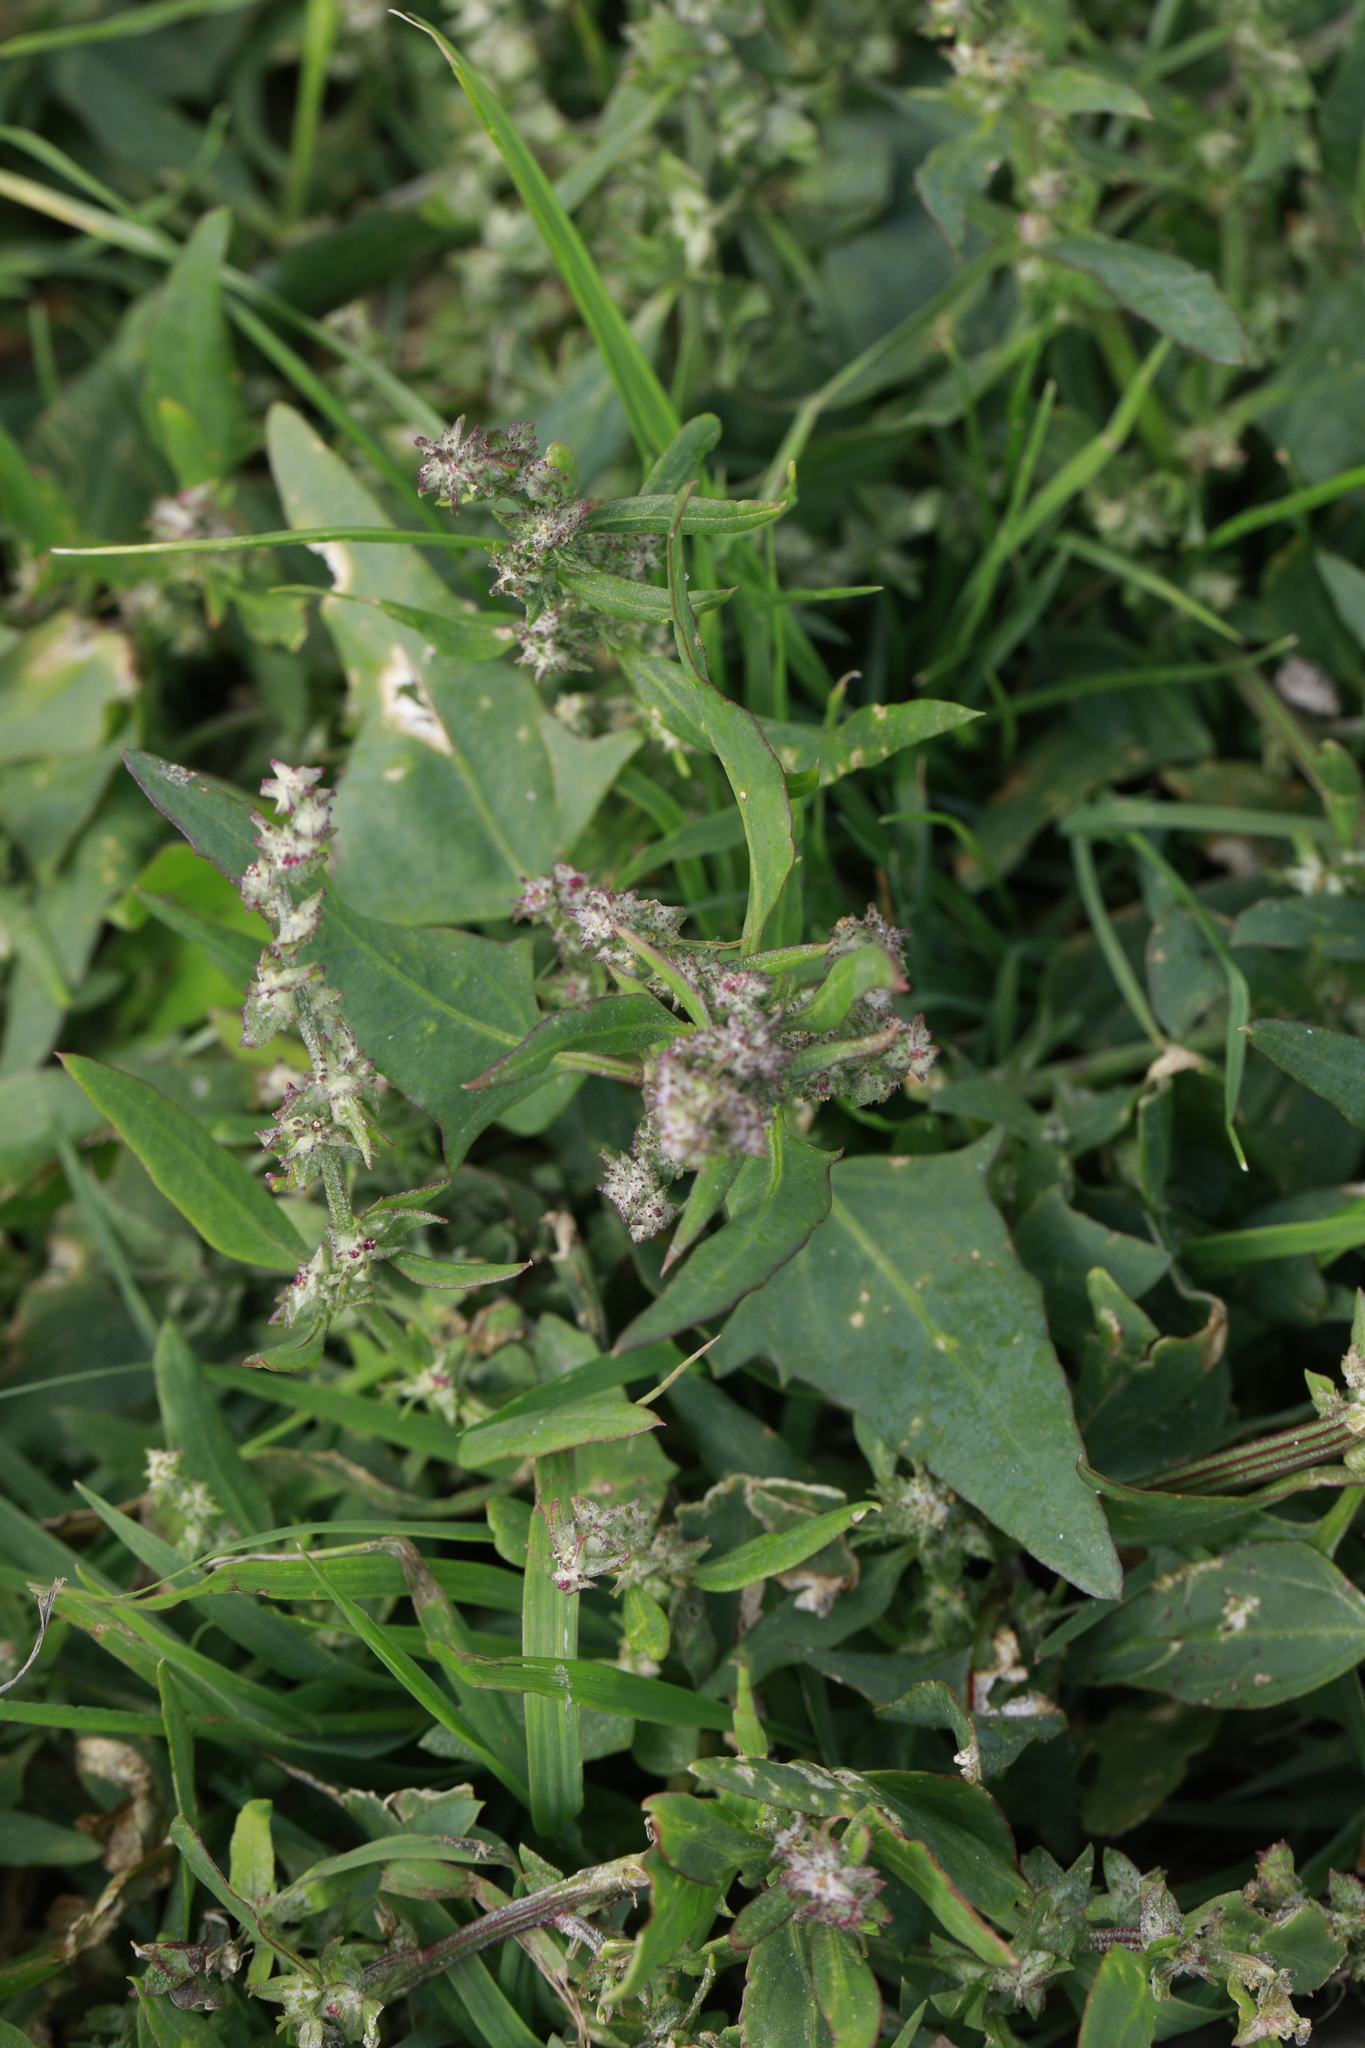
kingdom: Plantae
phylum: Tracheophyta
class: Magnoliopsida
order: Caryophyllales
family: Amaranthaceae
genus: Atriplex
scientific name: Atriplex prostrata
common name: Spear-leaved orache
